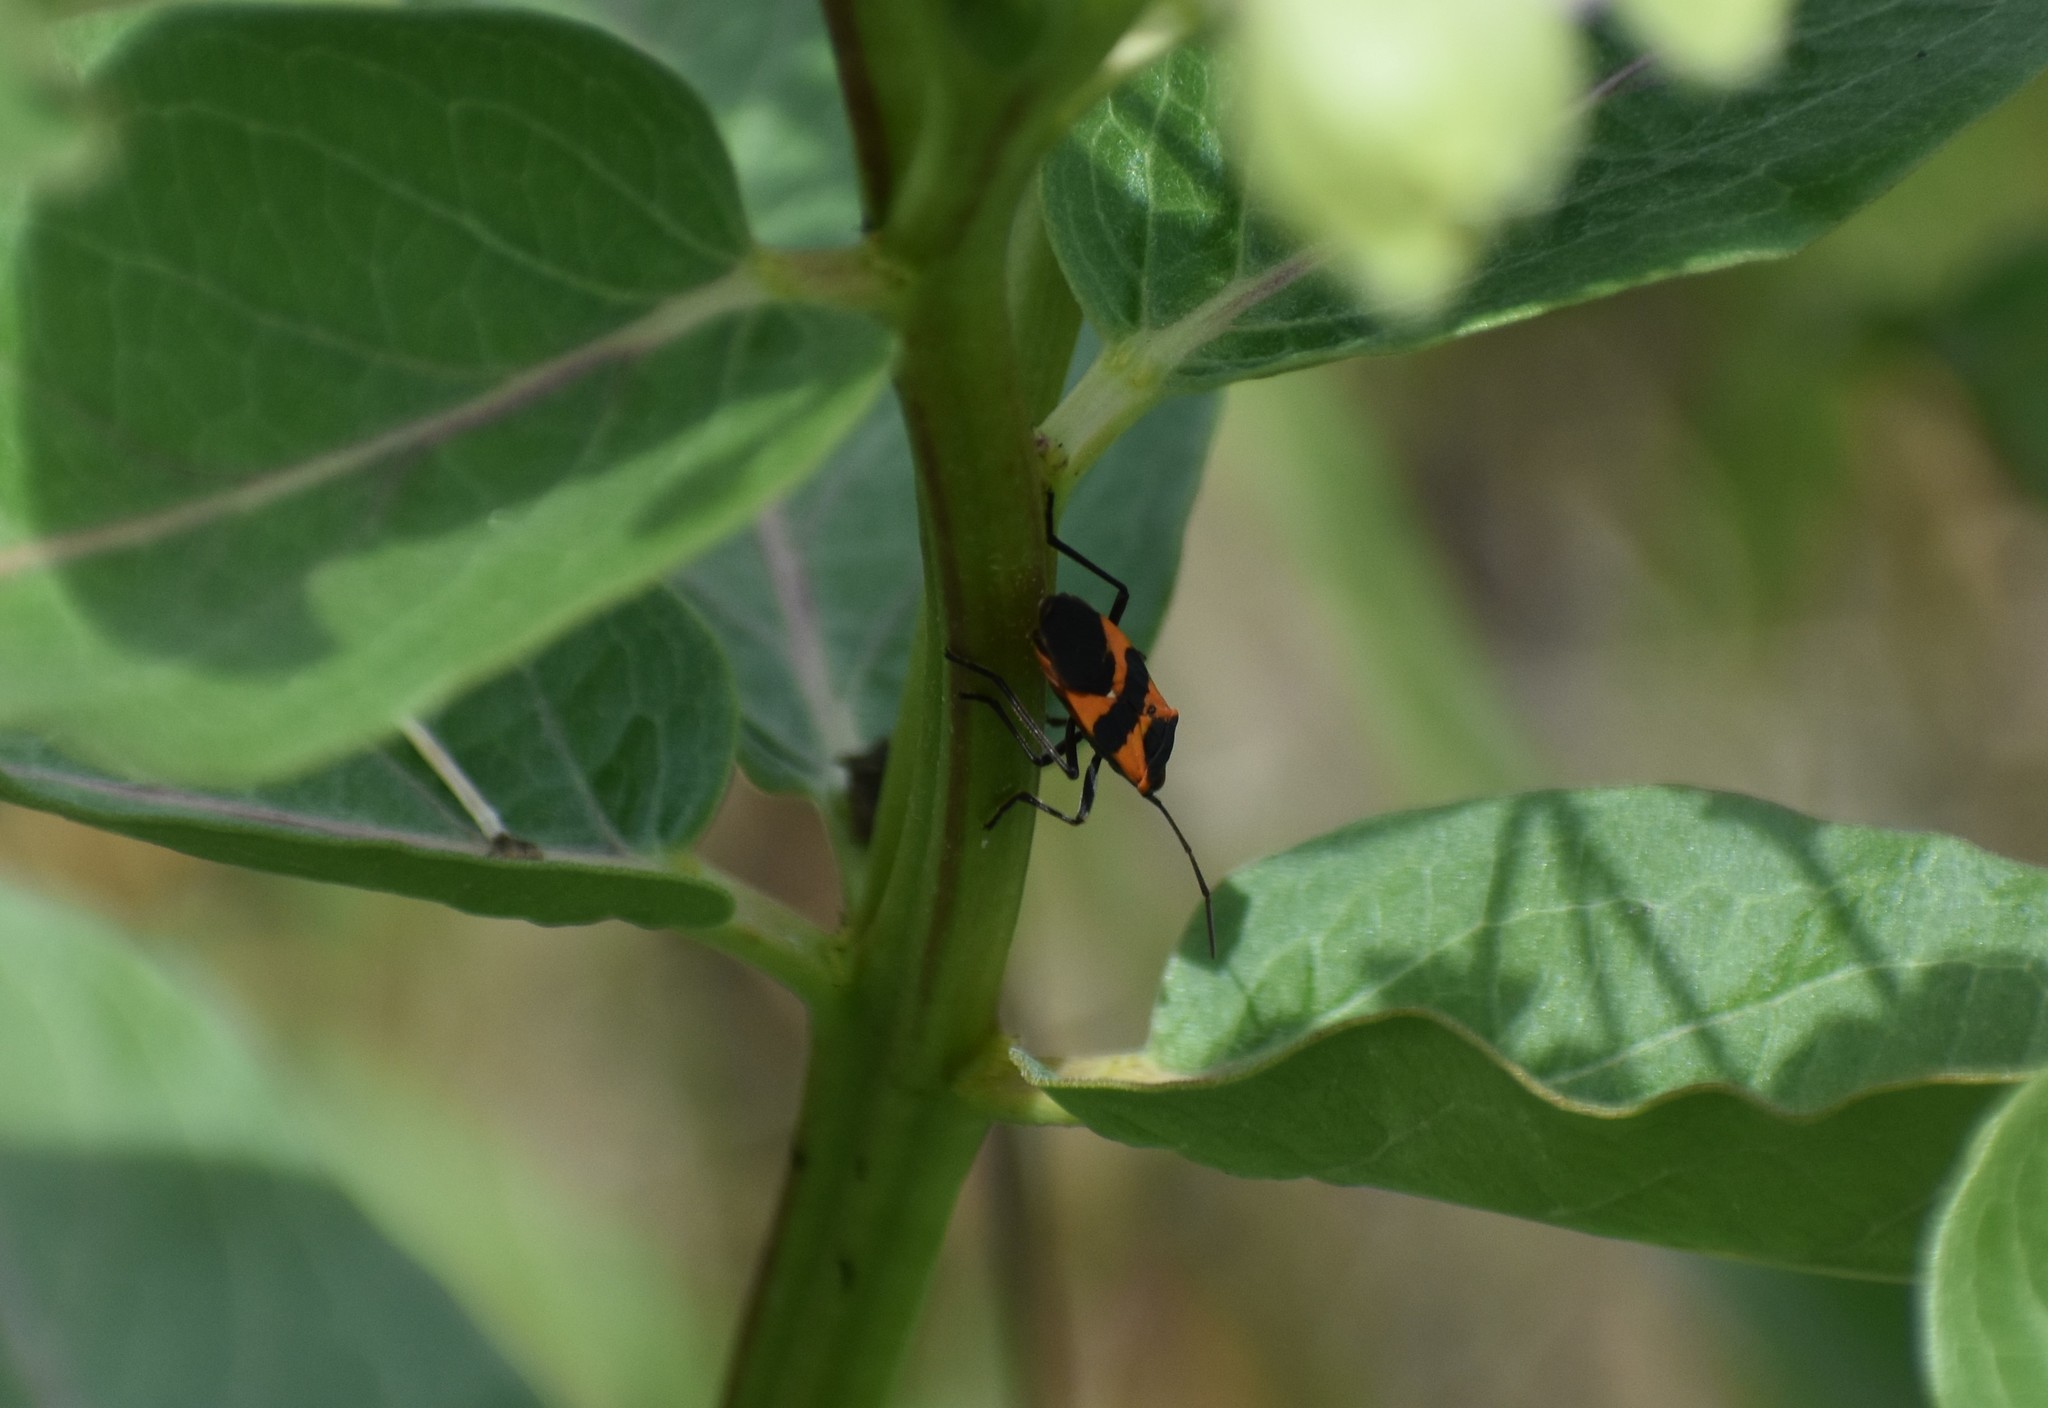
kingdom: Animalia
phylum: Arthropoda
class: Insecta
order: Hemiptera
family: Lygaeidae
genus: Oncopeltus
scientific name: Oncopeltus fasciatus
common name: Large milkweed bug
